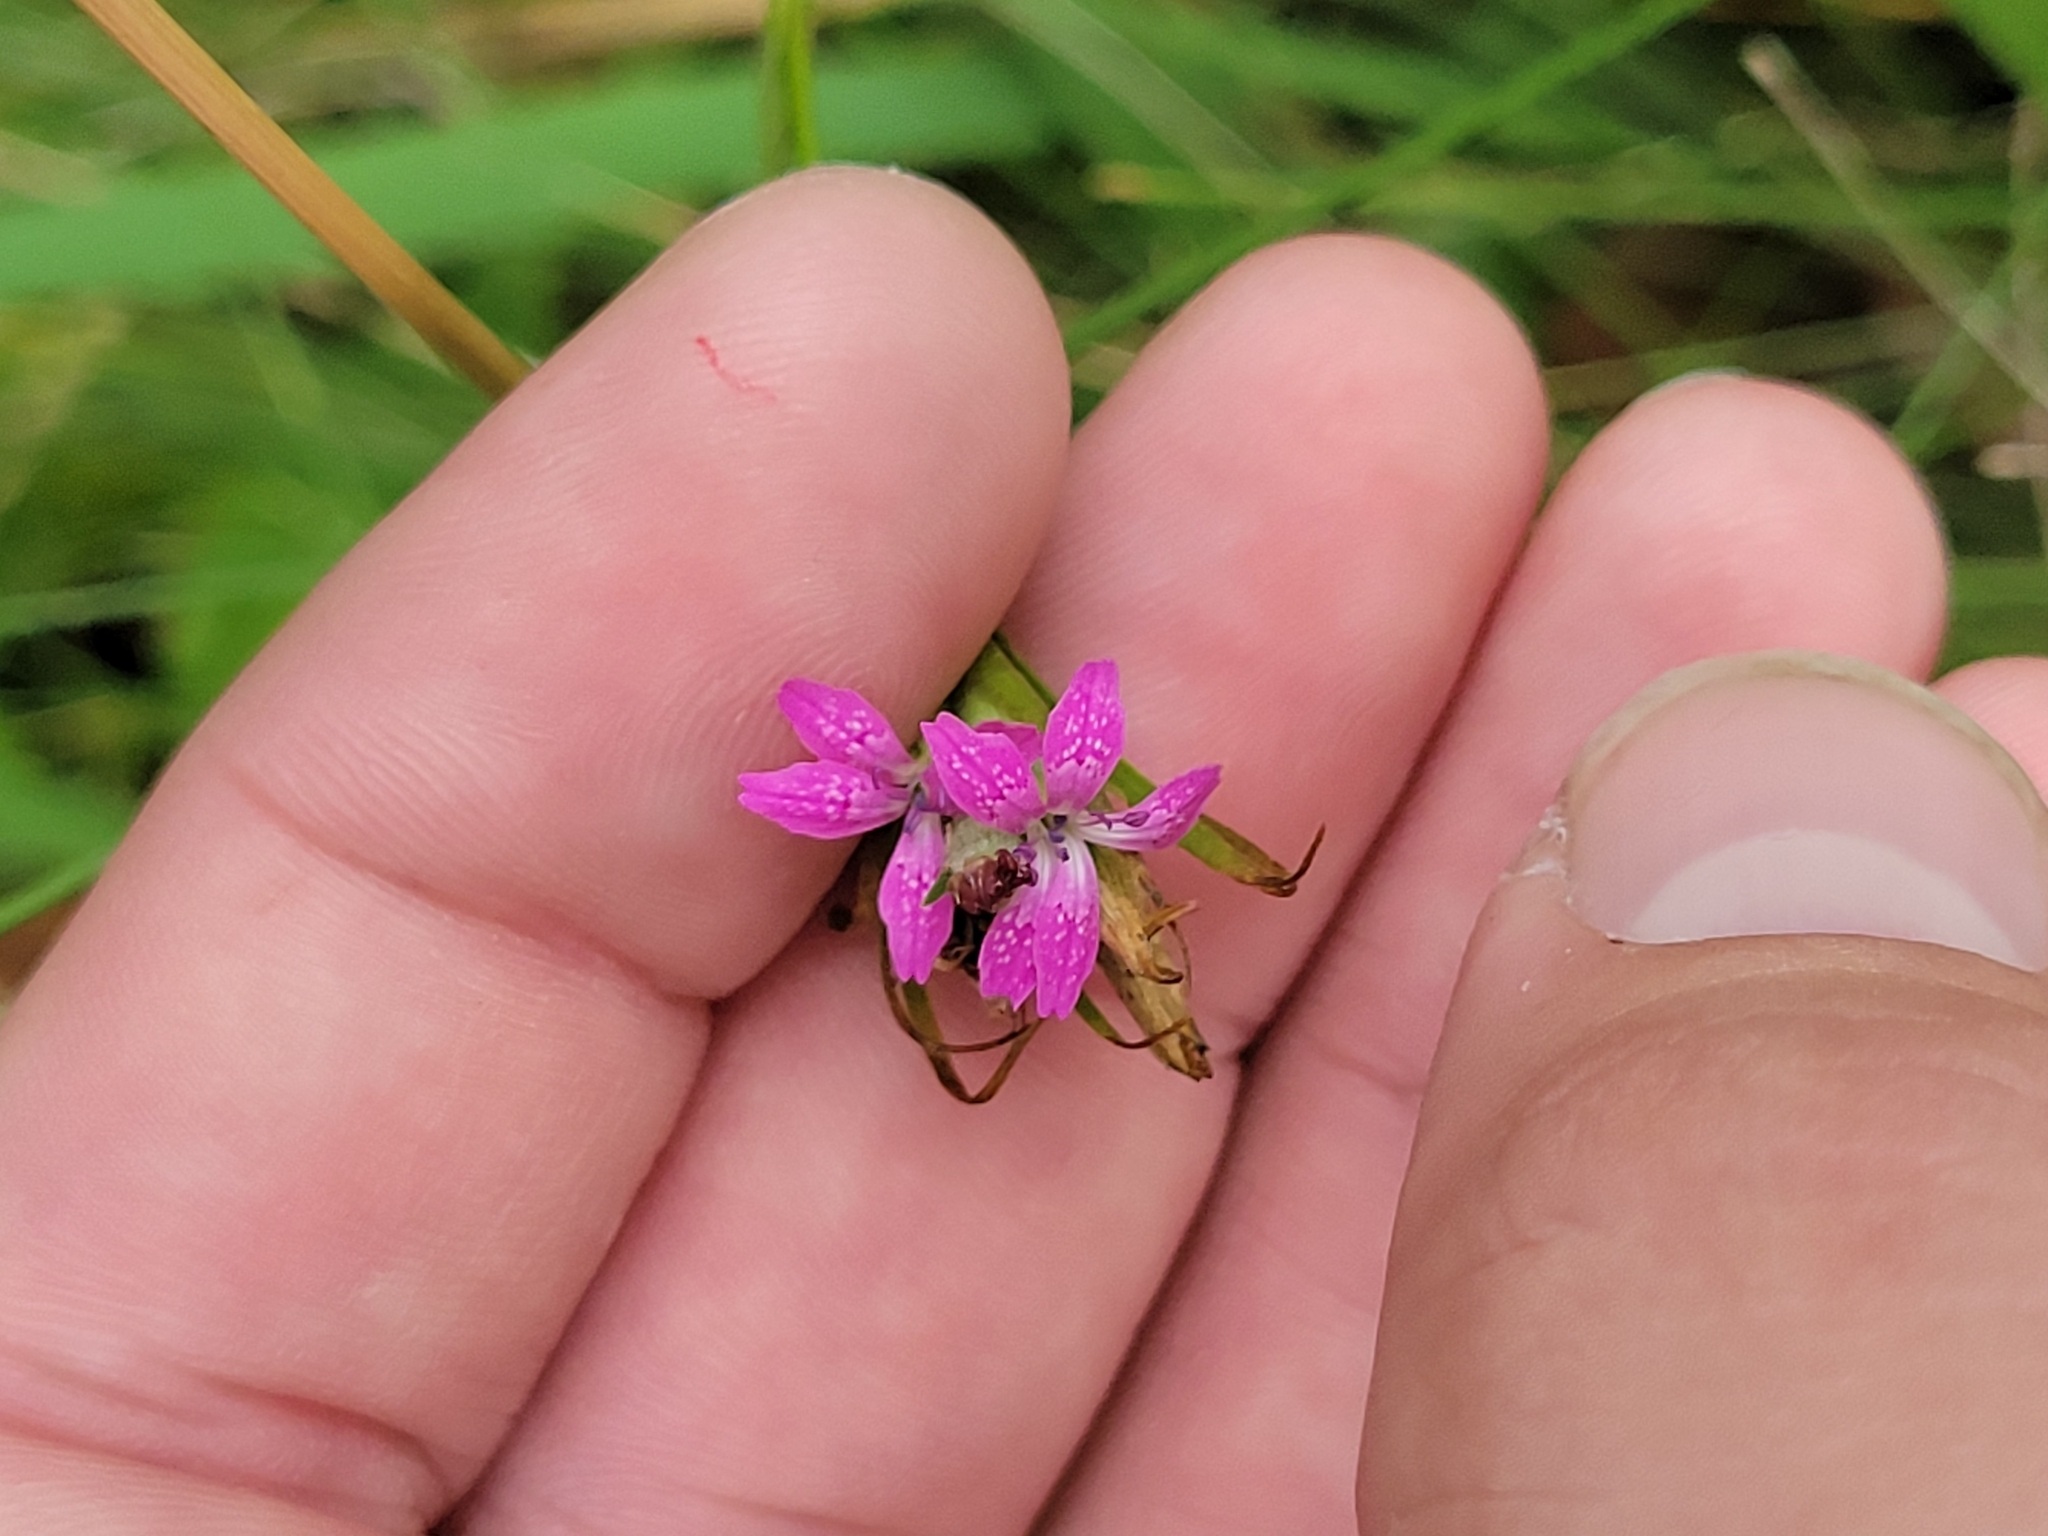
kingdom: Plantae
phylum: Tracheophyta
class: Magnoliopsida
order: Caryophyllales
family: Caryophyllaceae
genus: Dianthus
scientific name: Dianthus armeria
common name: Deptford pink
